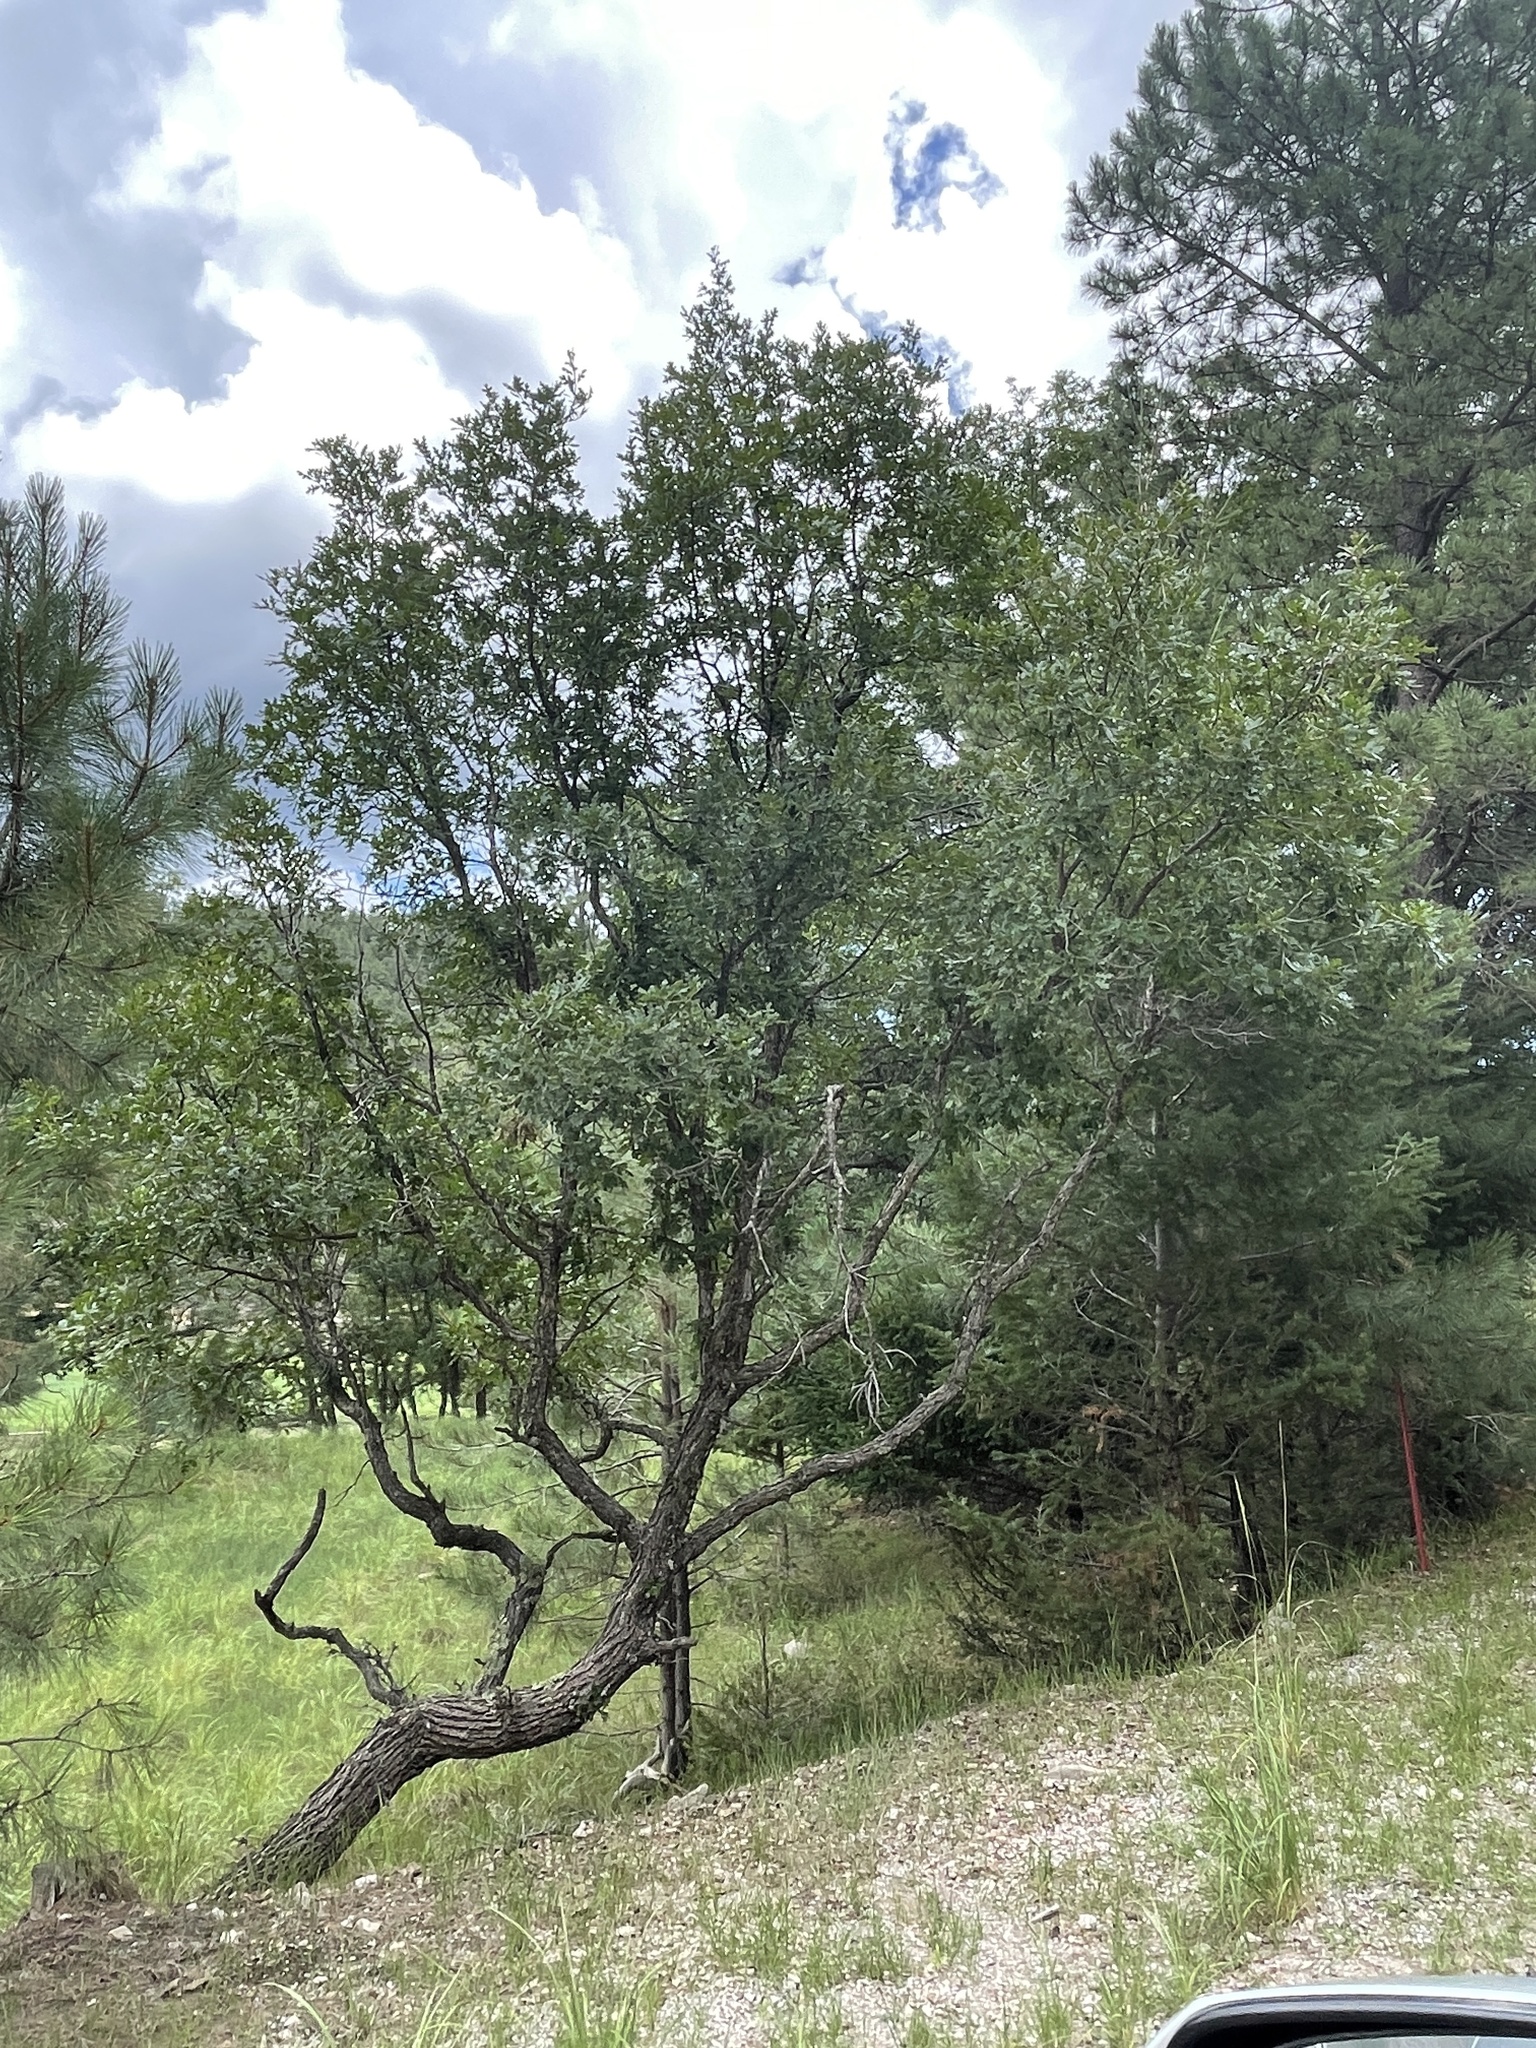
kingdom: Plantae
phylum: Tracheophyta
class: Magnoliopsida
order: Fagales
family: Fagaceae
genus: Quercus
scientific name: Quercus gambelii
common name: Gambel oak
